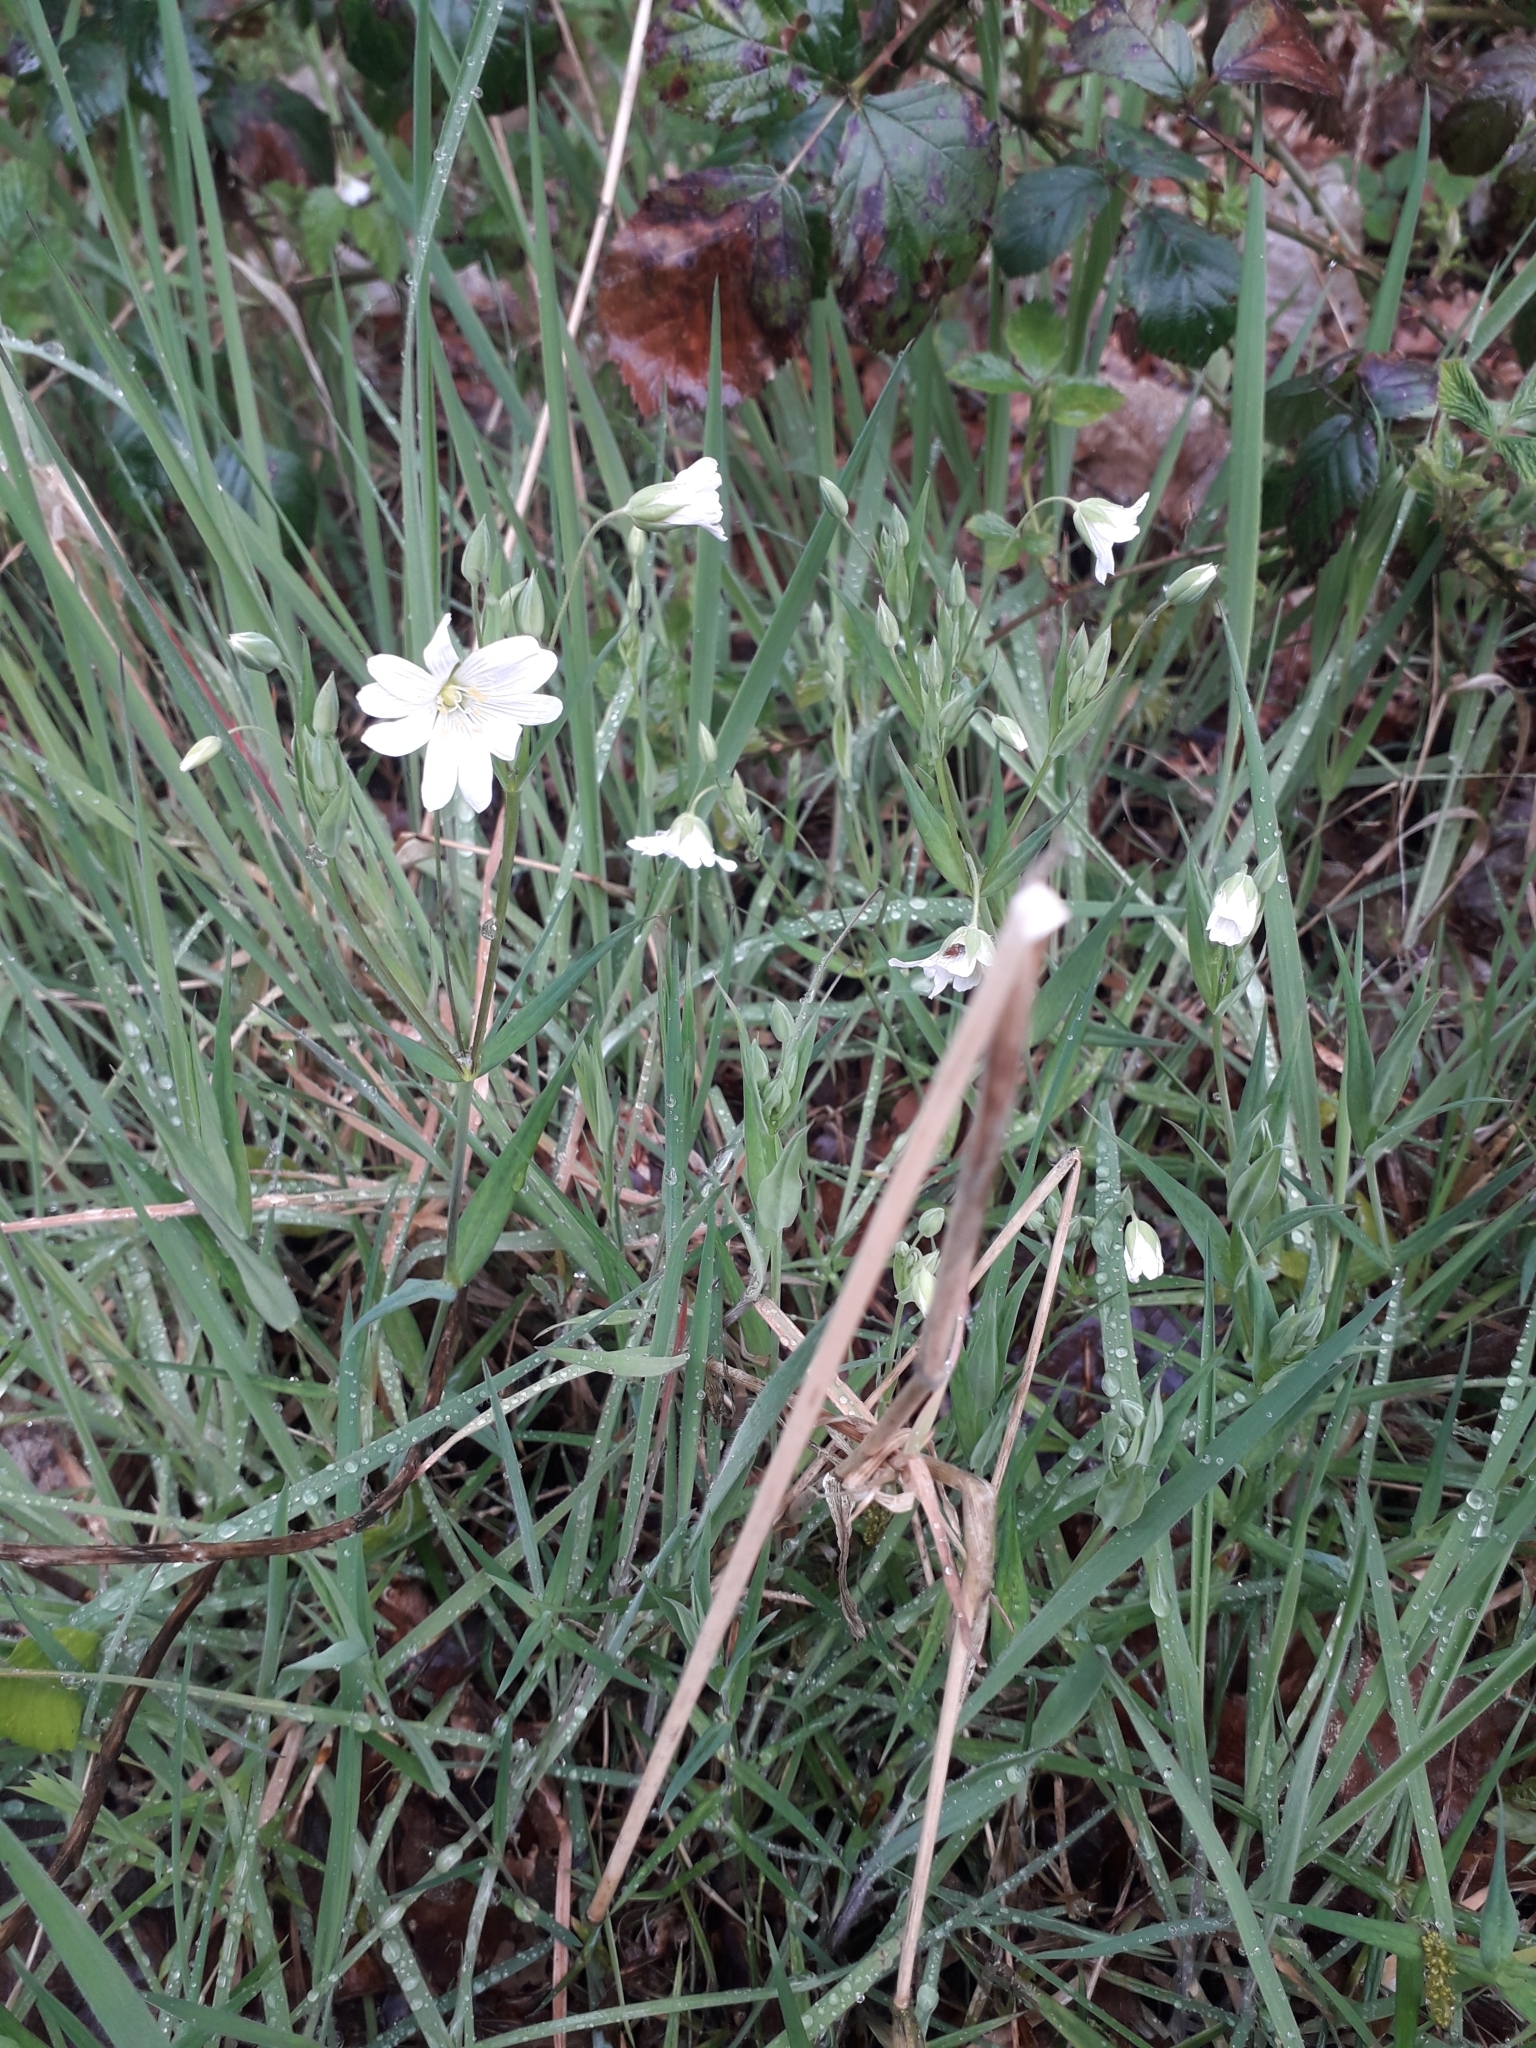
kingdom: Plantae
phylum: Tracheophyta
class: Magnoliopsida
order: Caryophyllales
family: Caryophyllaceae
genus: Rabelera
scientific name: Rabelera holostea
